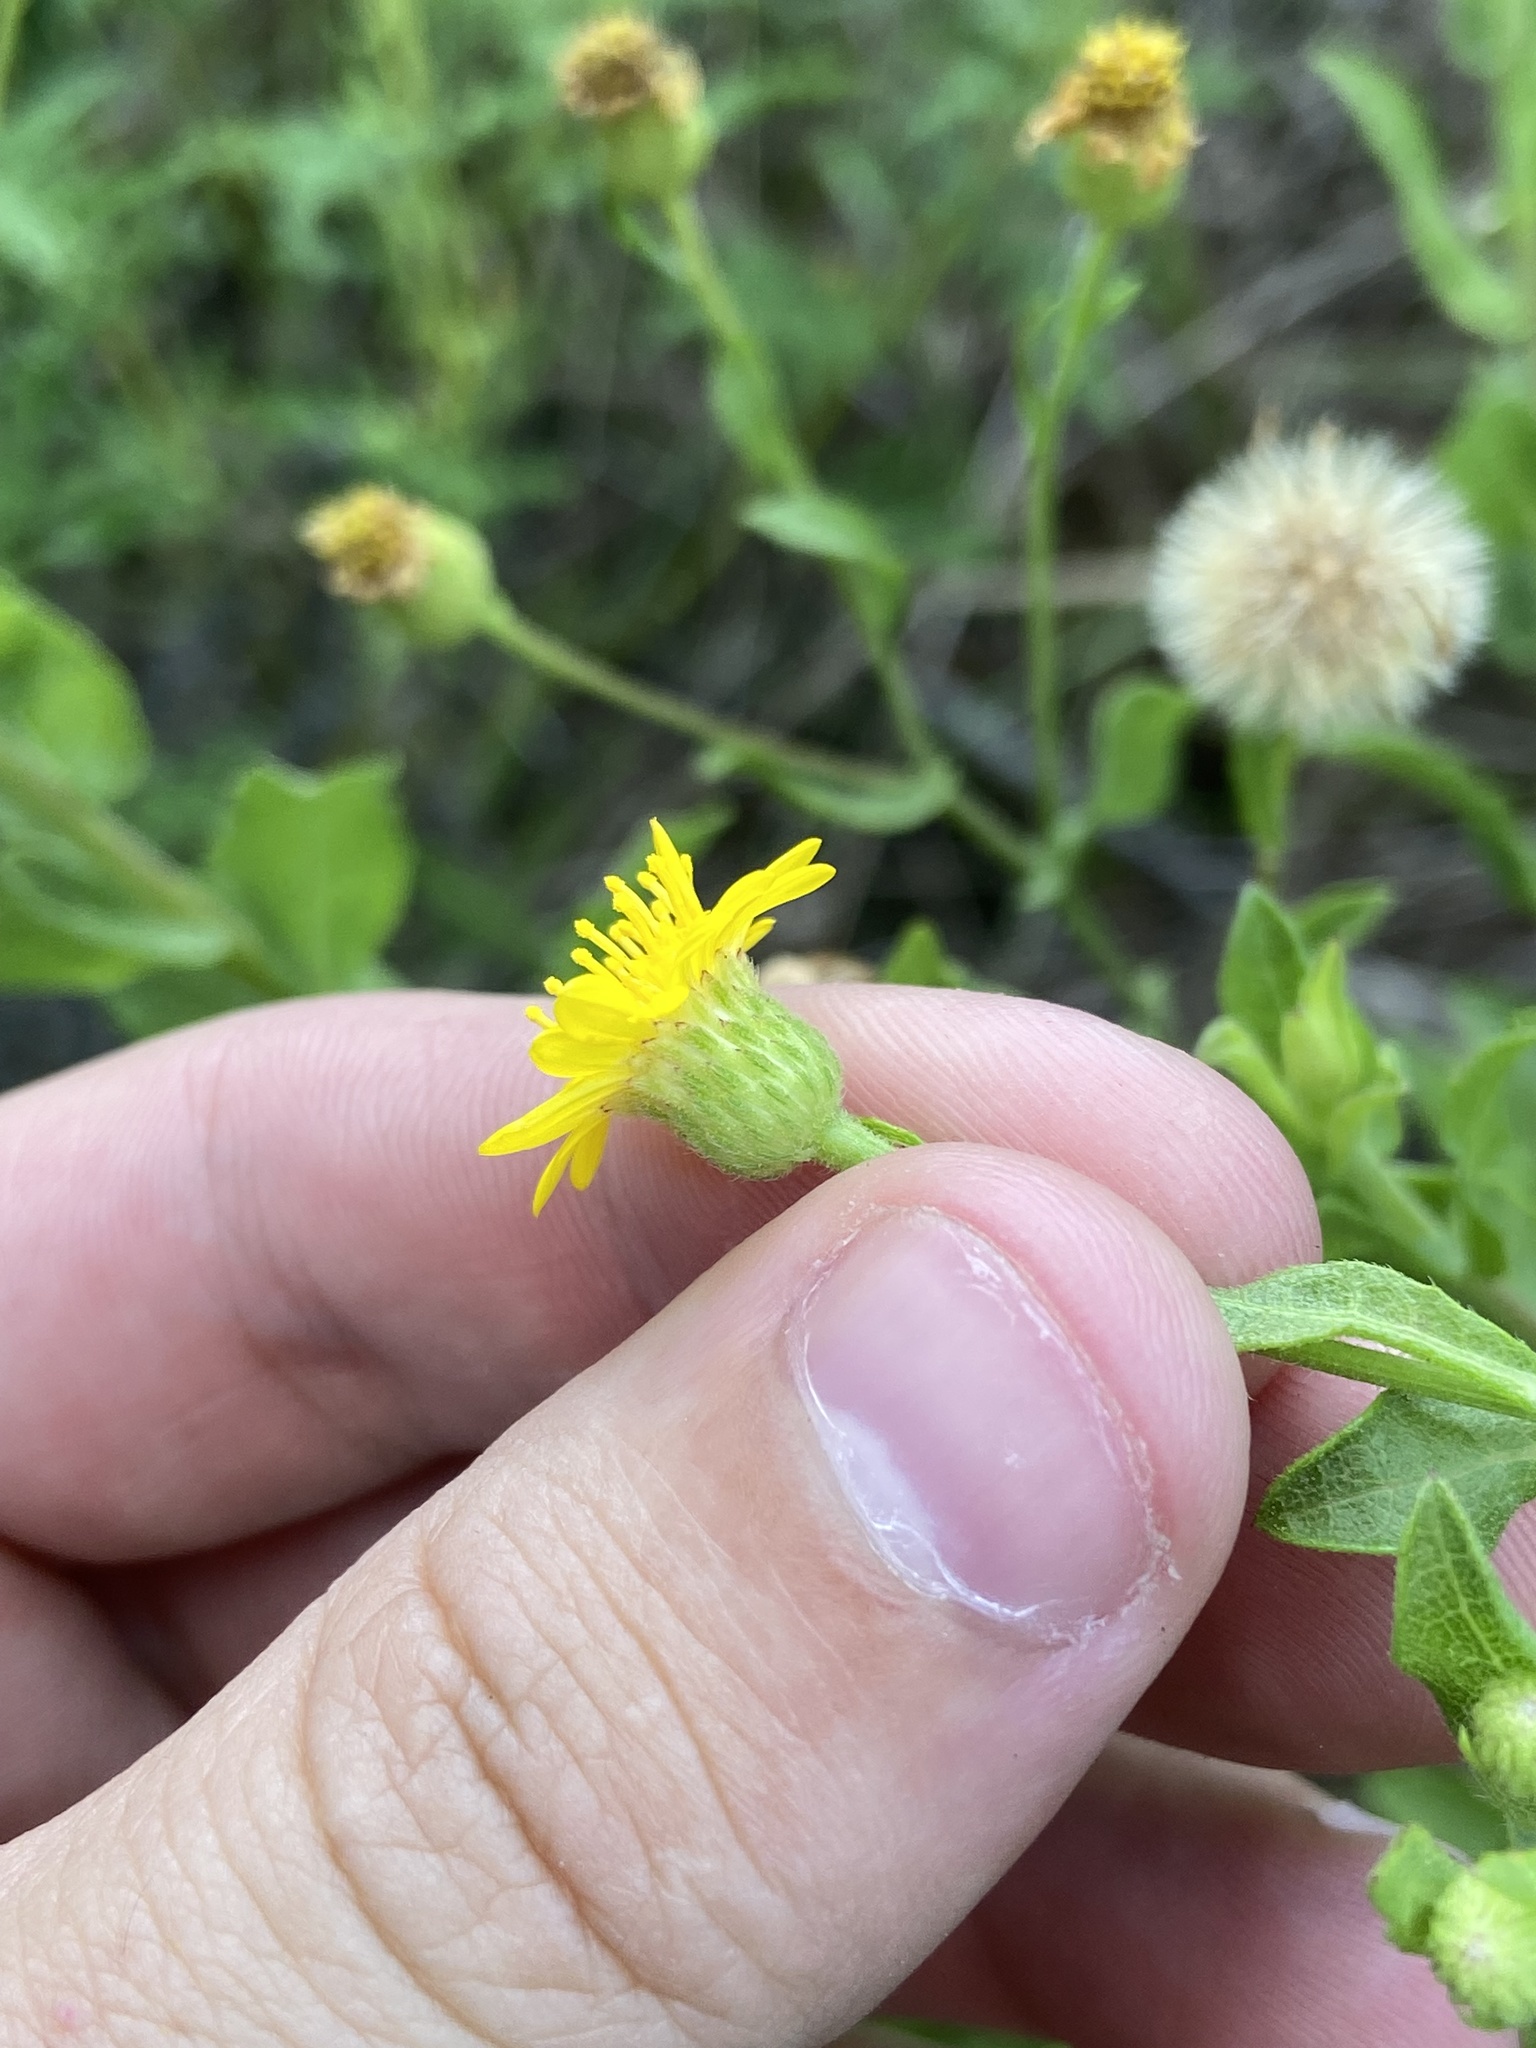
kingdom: Plantae
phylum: Tracheophyta
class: Magnoliopsida
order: Asterales
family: Asteraceae
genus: Heterotheca
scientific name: Heterotheca subaxillaris
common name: Camphorweed
